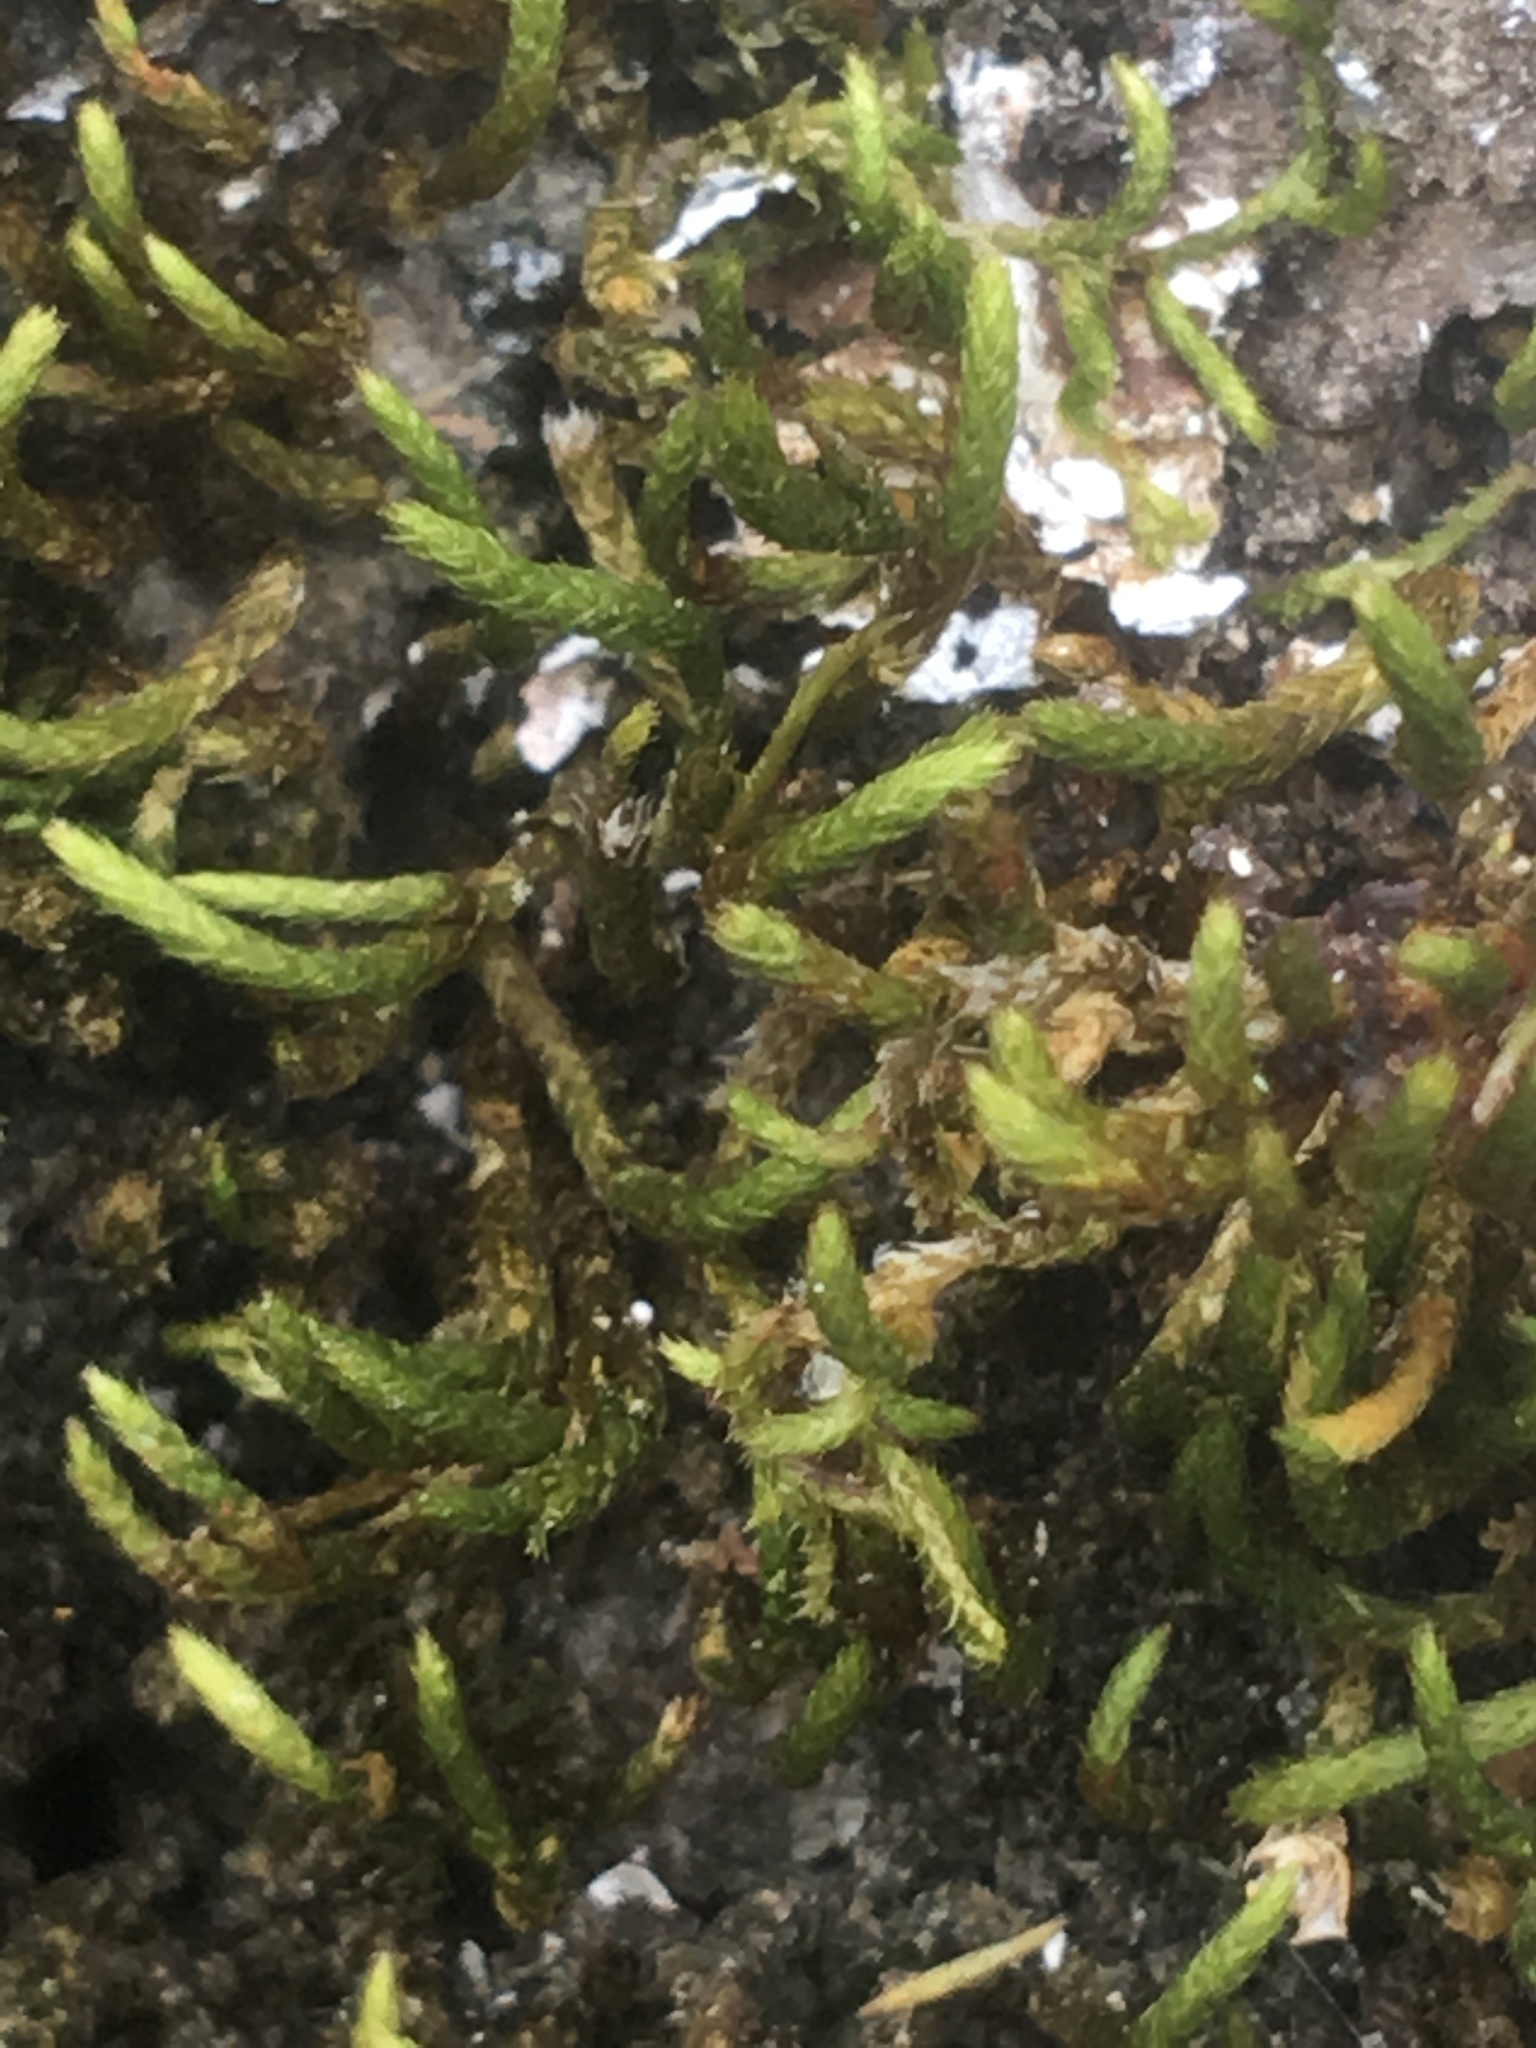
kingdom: Plantae
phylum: Bryophyta
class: Bryopsida
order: Hypnales
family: Leucodontaceae
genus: Leucodon
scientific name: Leucodon julaceus
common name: Smooth hook moss
